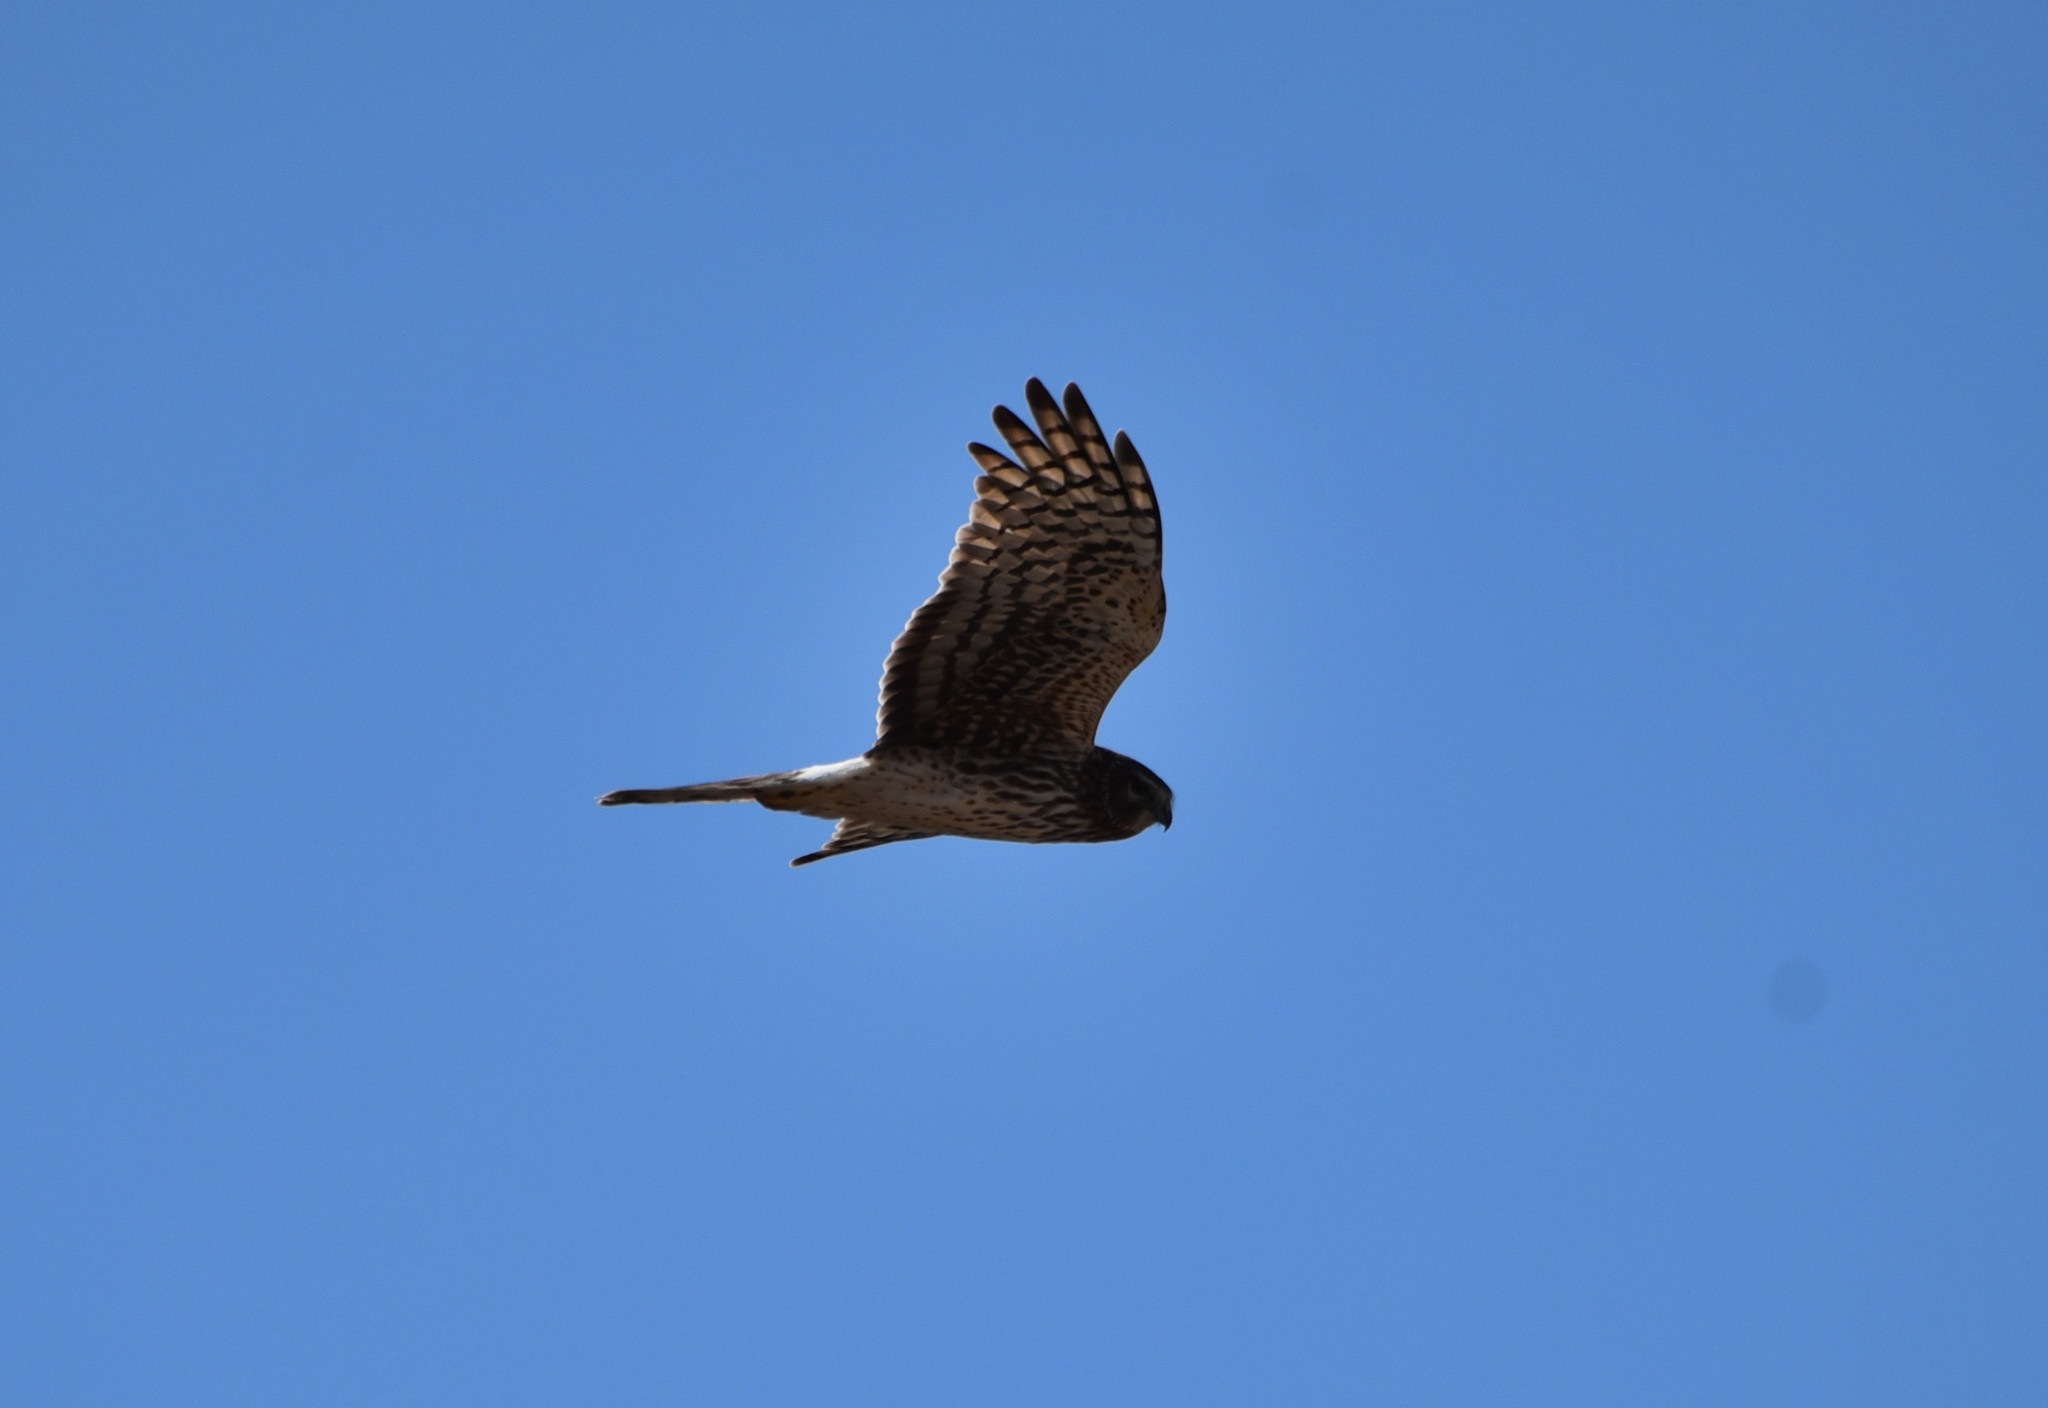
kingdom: Animalia
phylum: Chordata
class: Aves
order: Accipitriformes
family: Accipitridae
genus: Circus
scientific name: Circus cyaneus
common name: Hen harrier
